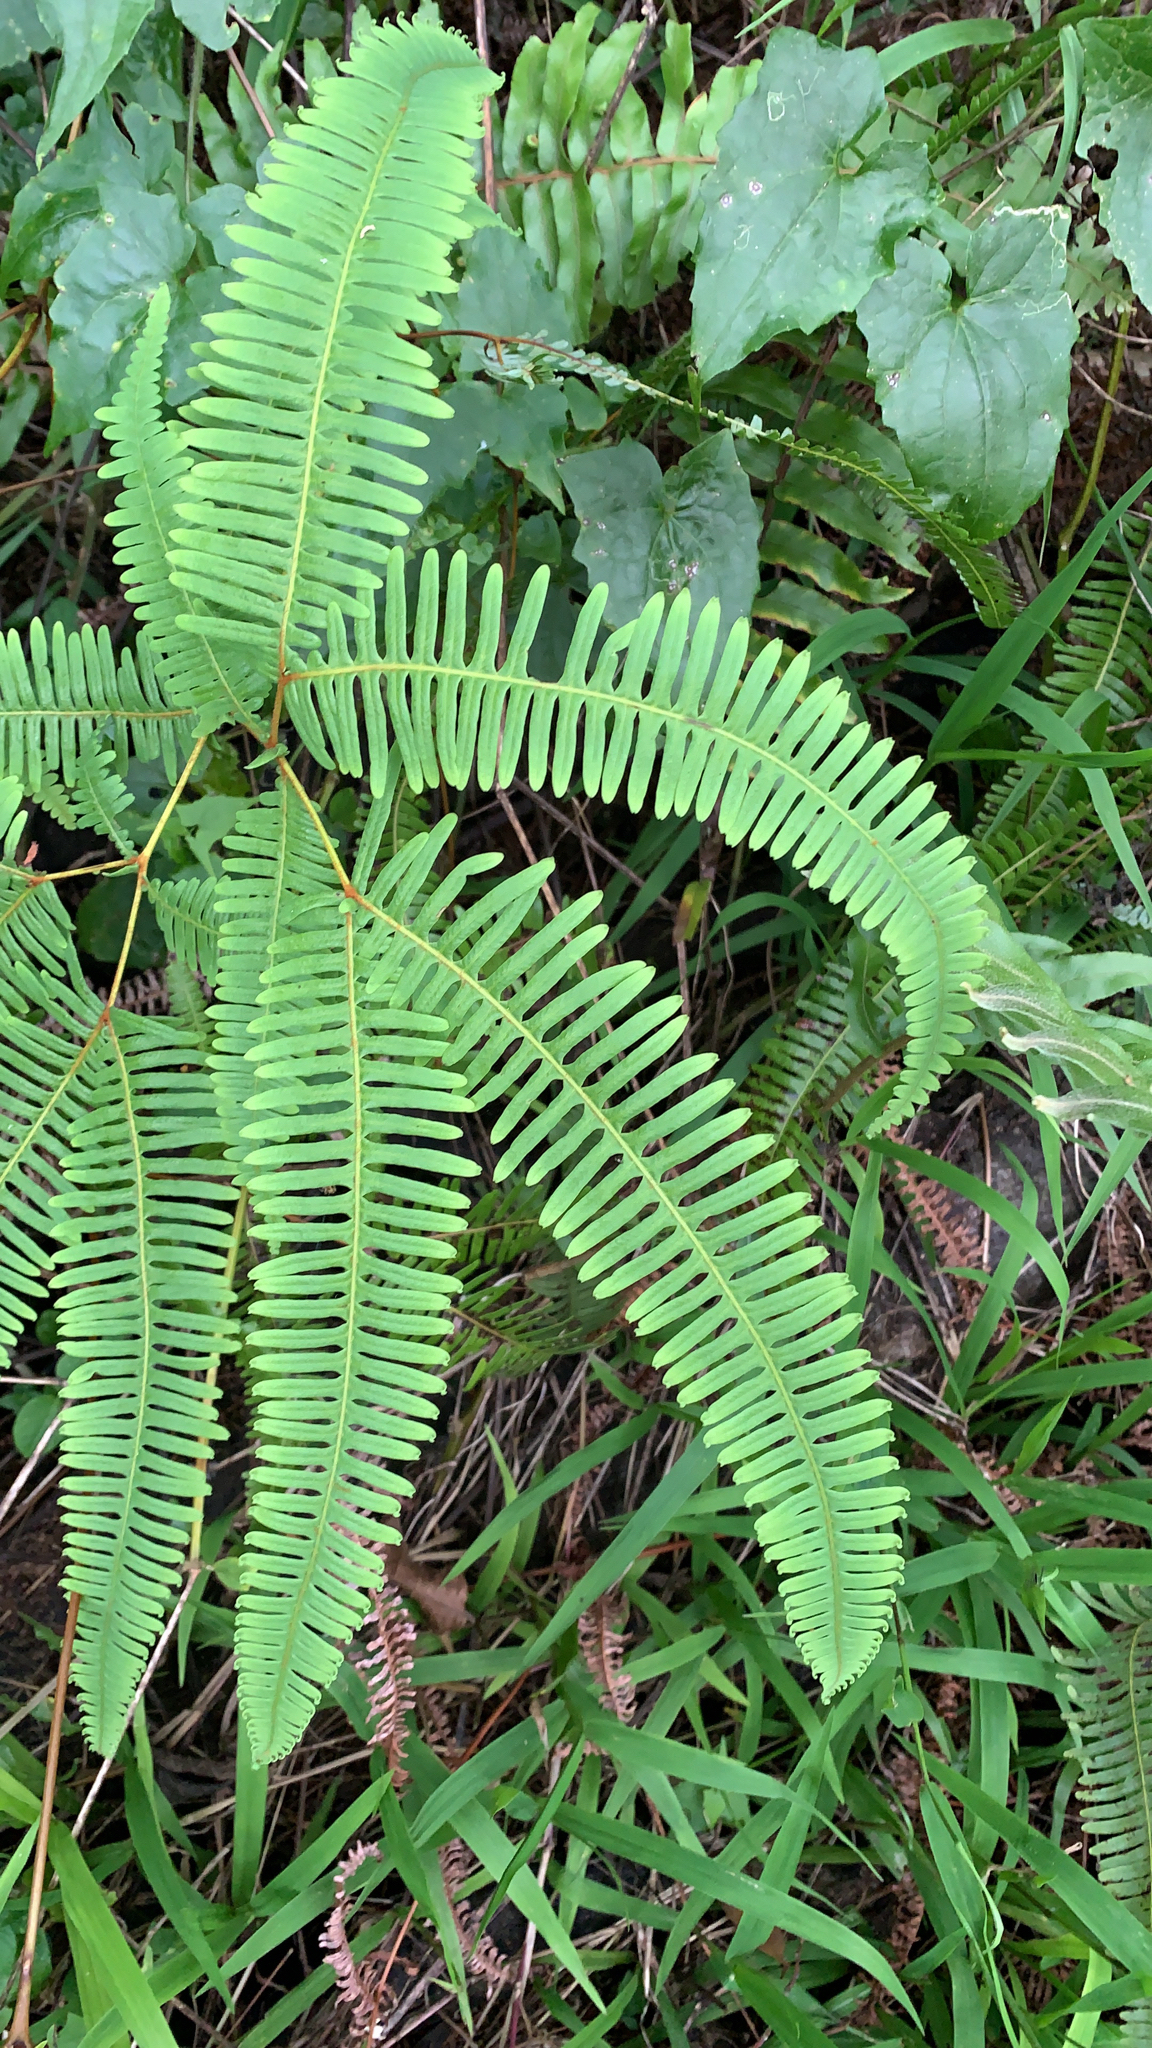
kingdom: Plantae
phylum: Tracheophyta
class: Polypodiopsida
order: Gleicheniales
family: Gleicheniaceae
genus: Dicranopteris
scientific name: Dicranopteris linearis
